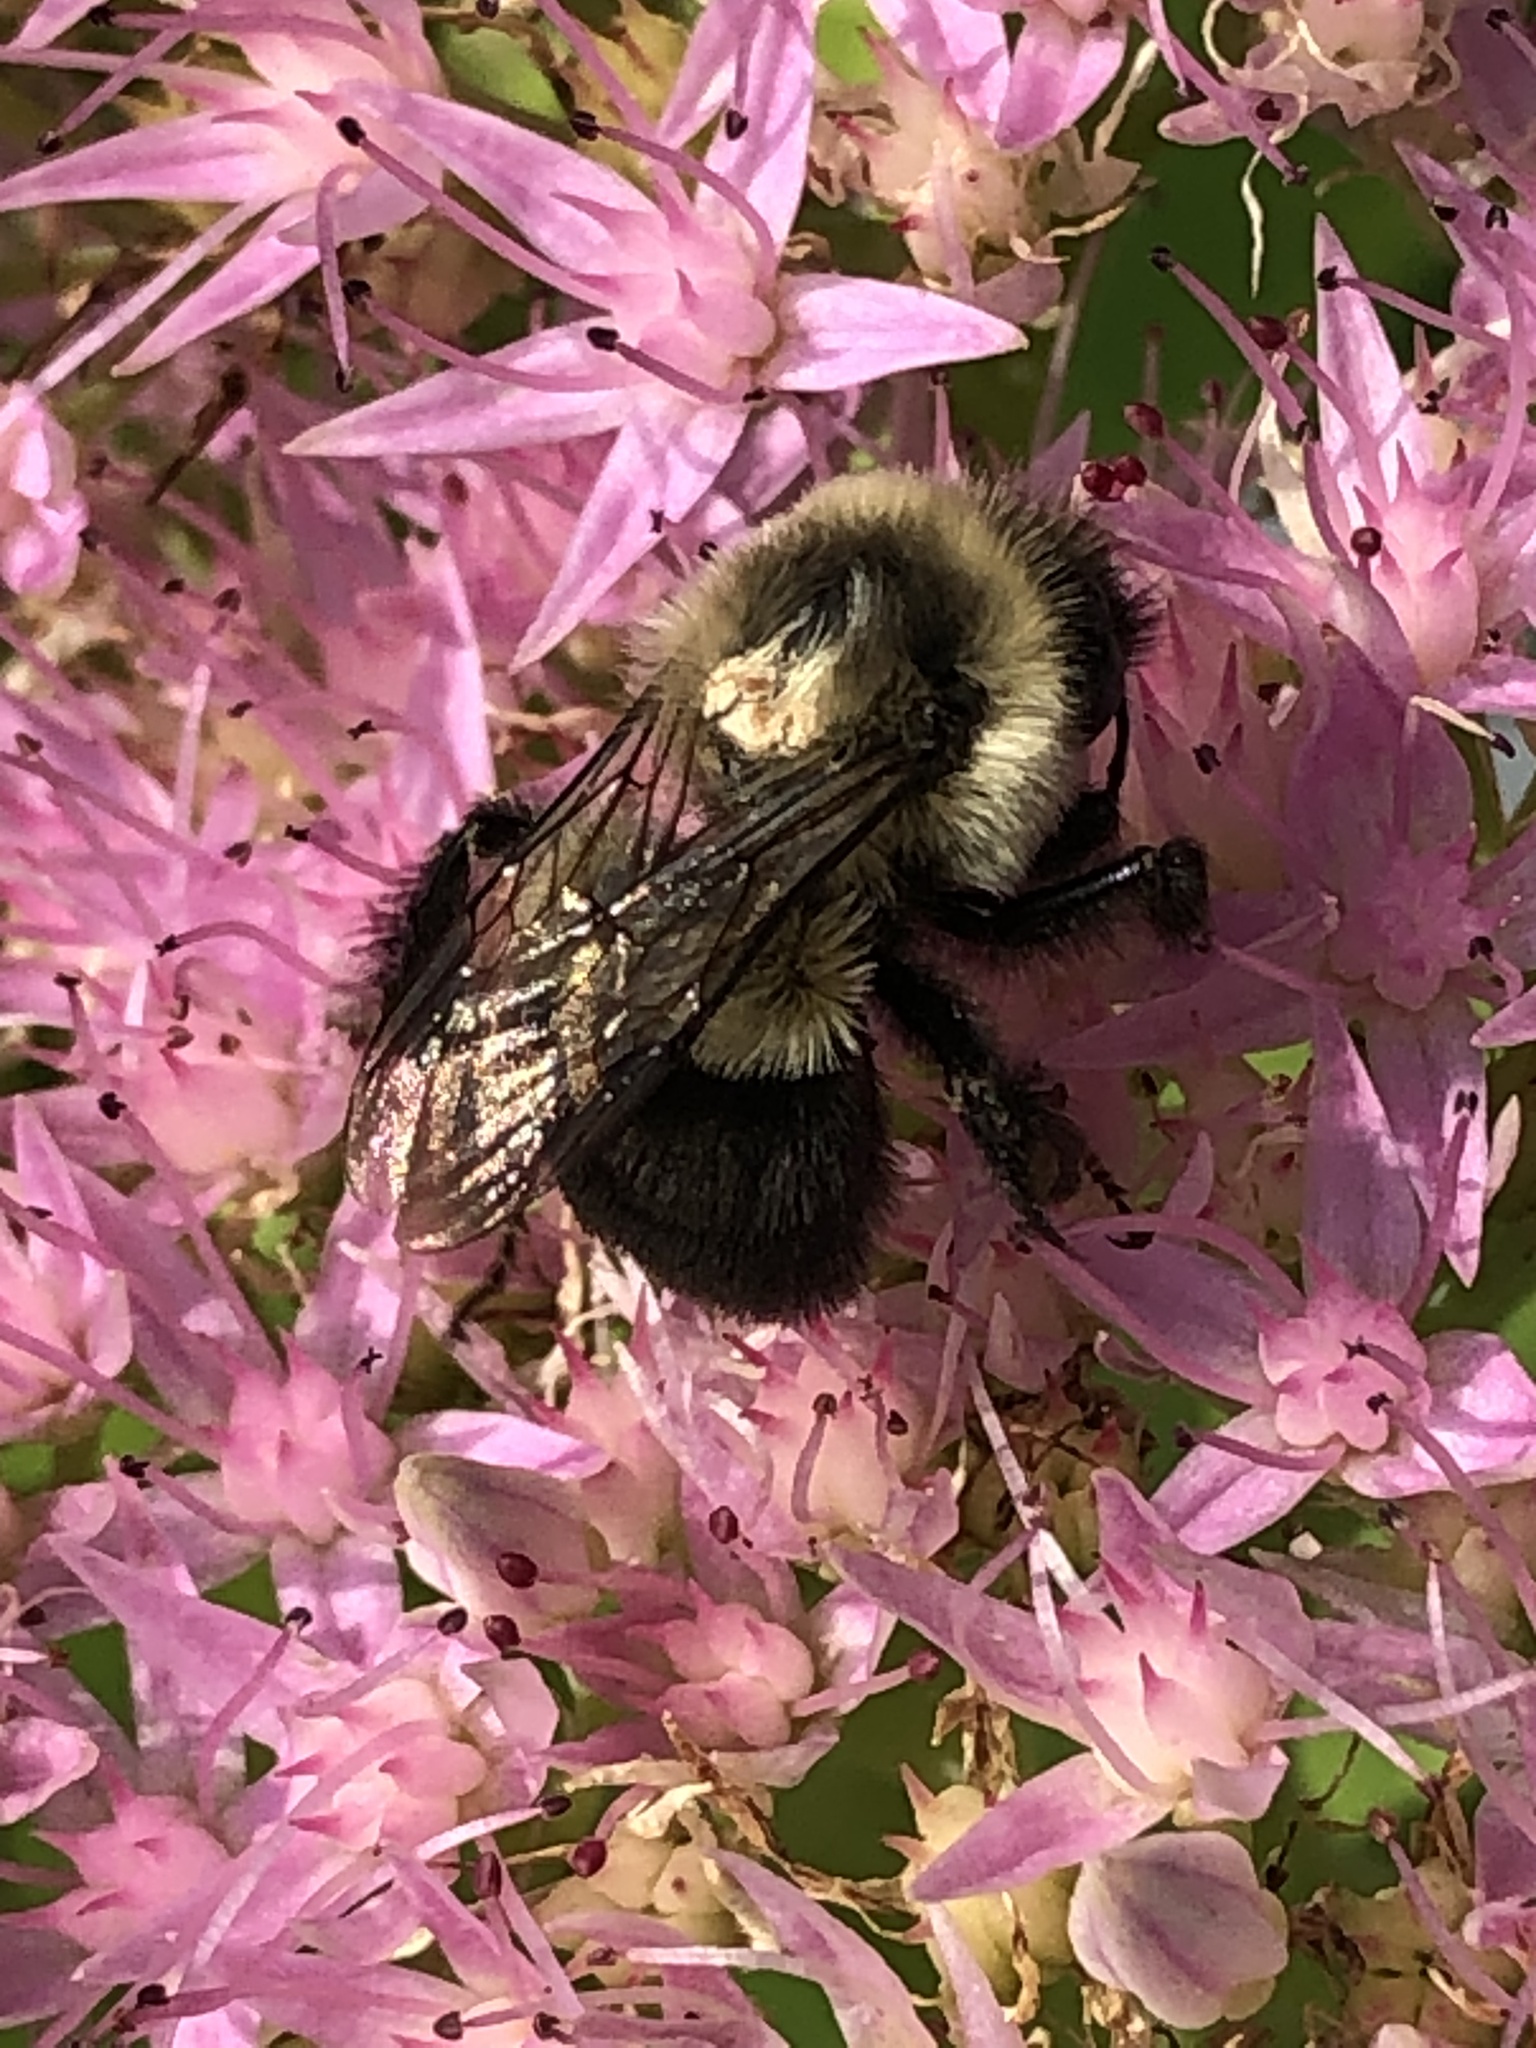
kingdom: Animalia
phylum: Arthropoda
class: Insecta
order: Hymenoptera
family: Apidae
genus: Bombus
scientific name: Bombus impatiens
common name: Common eastern bumble bee
